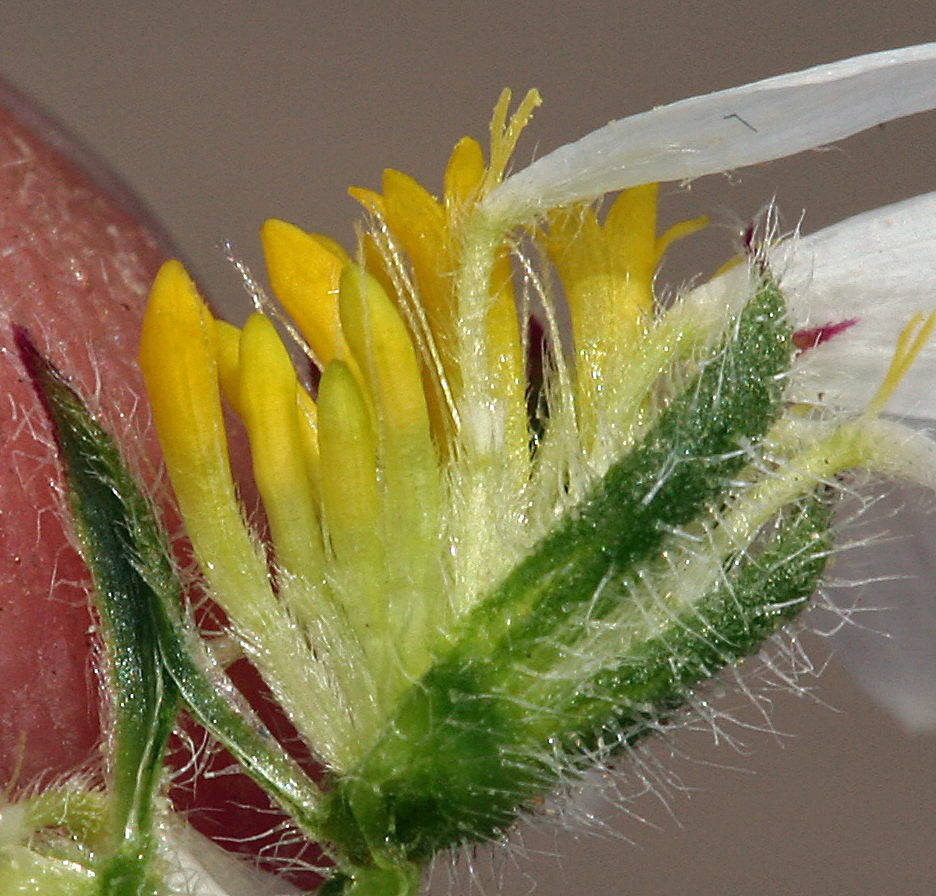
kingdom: Plantae
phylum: Tracheophyta
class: Magnoliopsida
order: Asterales
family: Asteraceae
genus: Monoptilon
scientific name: Monoptilon bellioides
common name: Bristly desertstar
